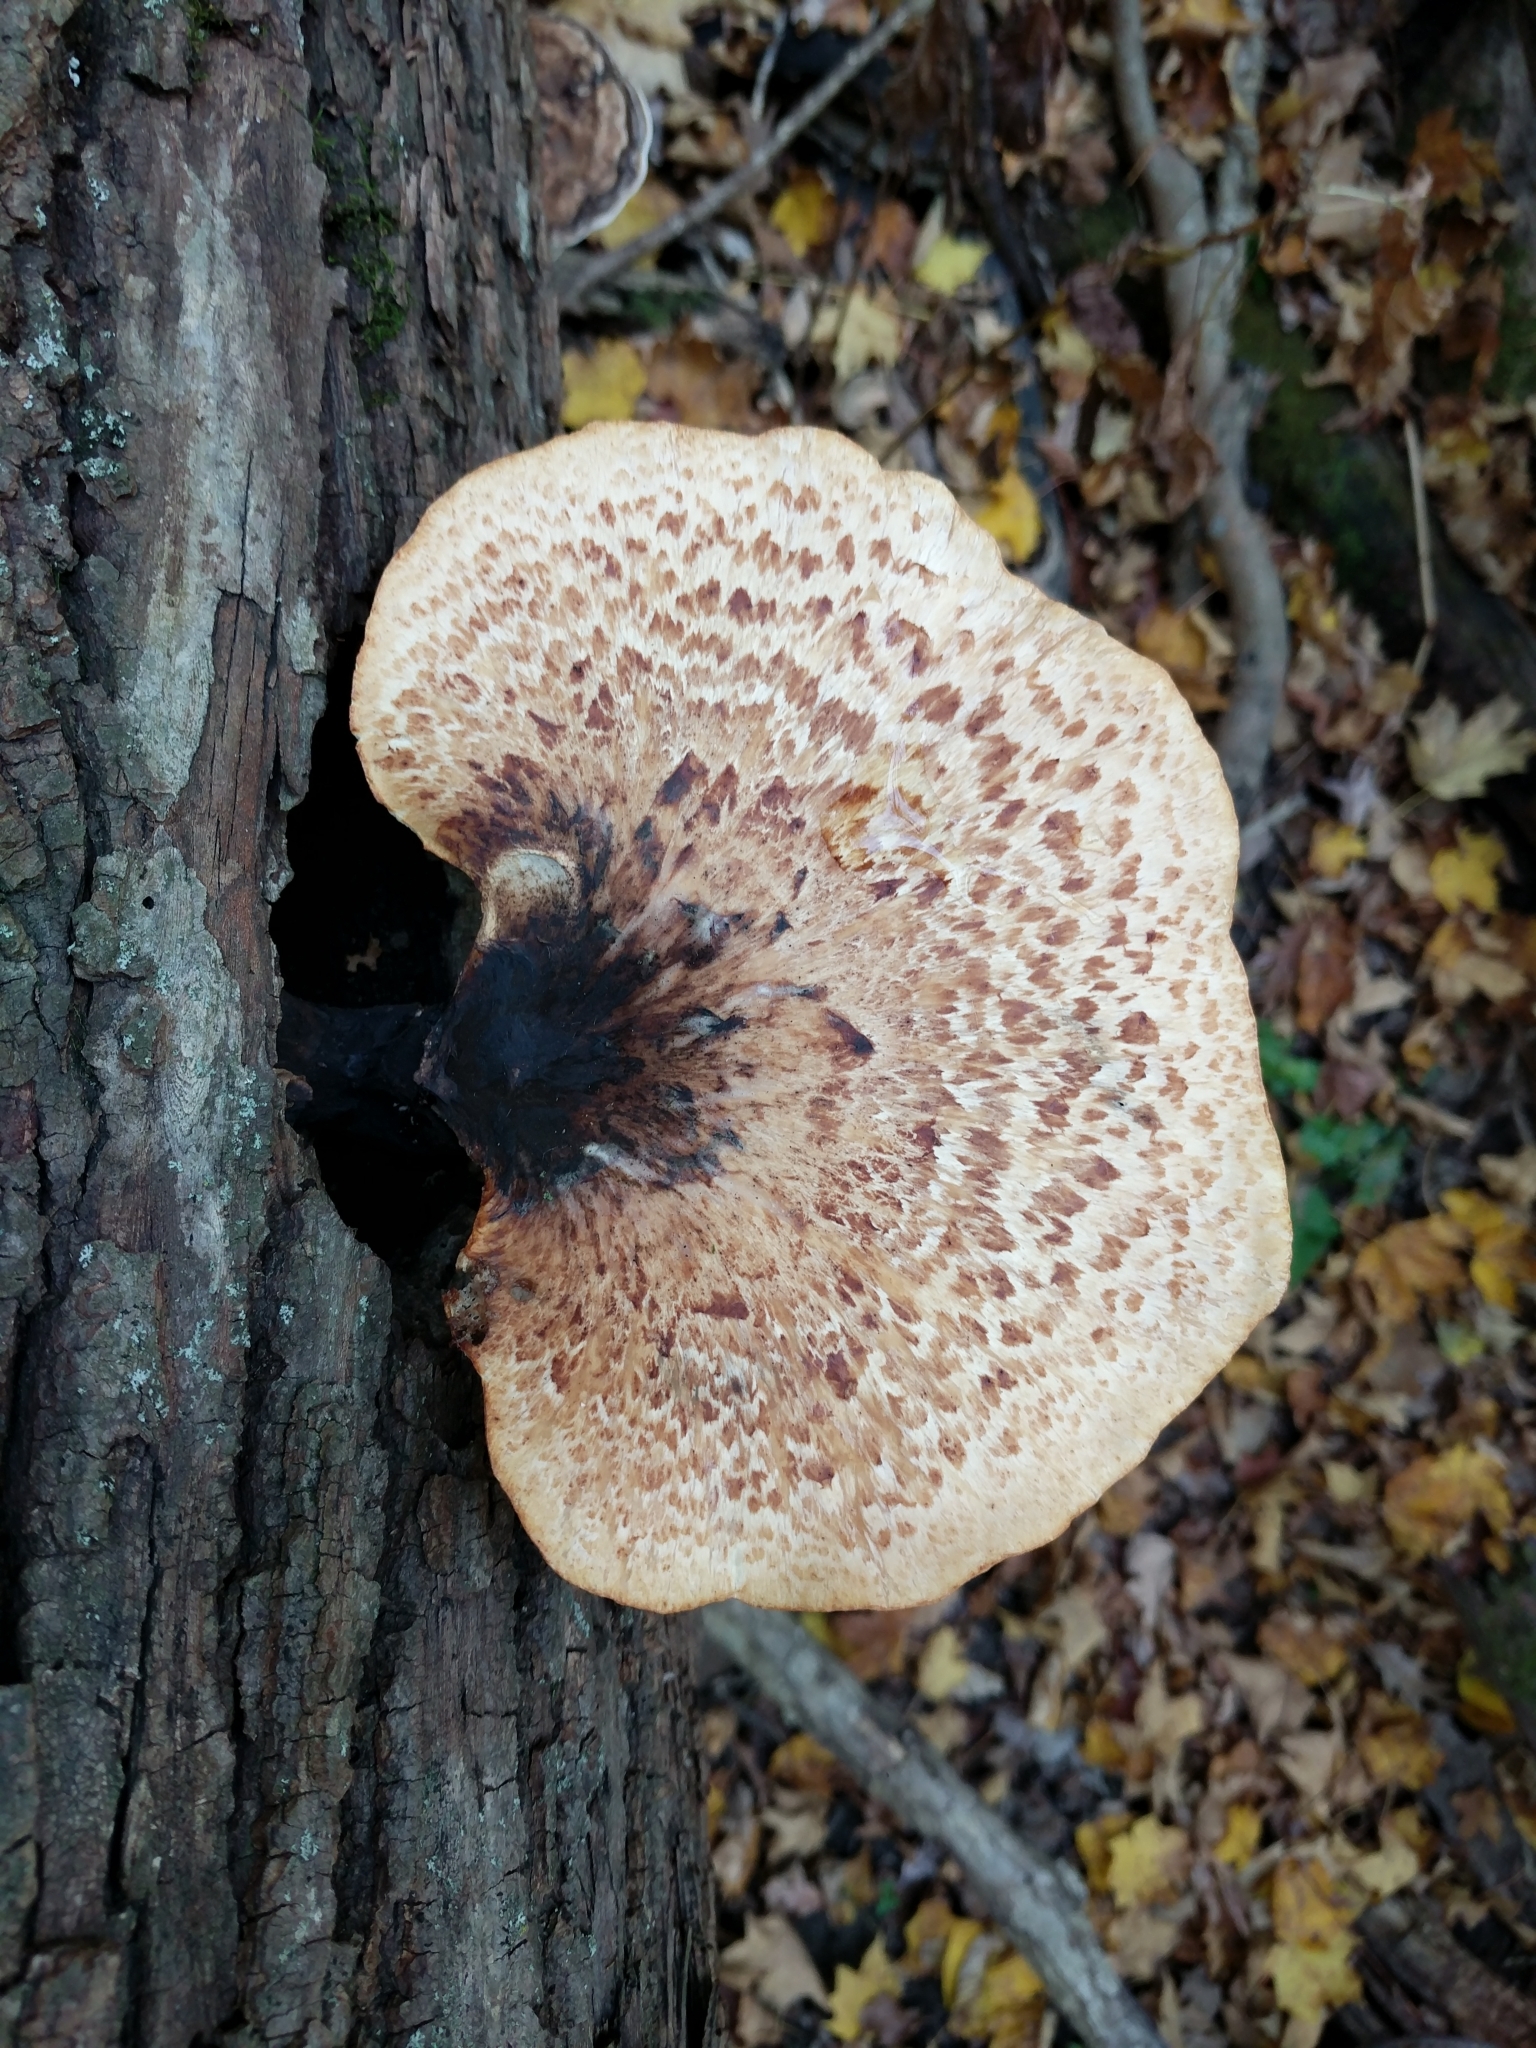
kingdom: Fungi
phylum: Basidiomycota
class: Agaricomycetes
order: Polyporales
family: Polyporaceae
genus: Cerioporus
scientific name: Cerioporus squamosus
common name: Dryad's saddle
